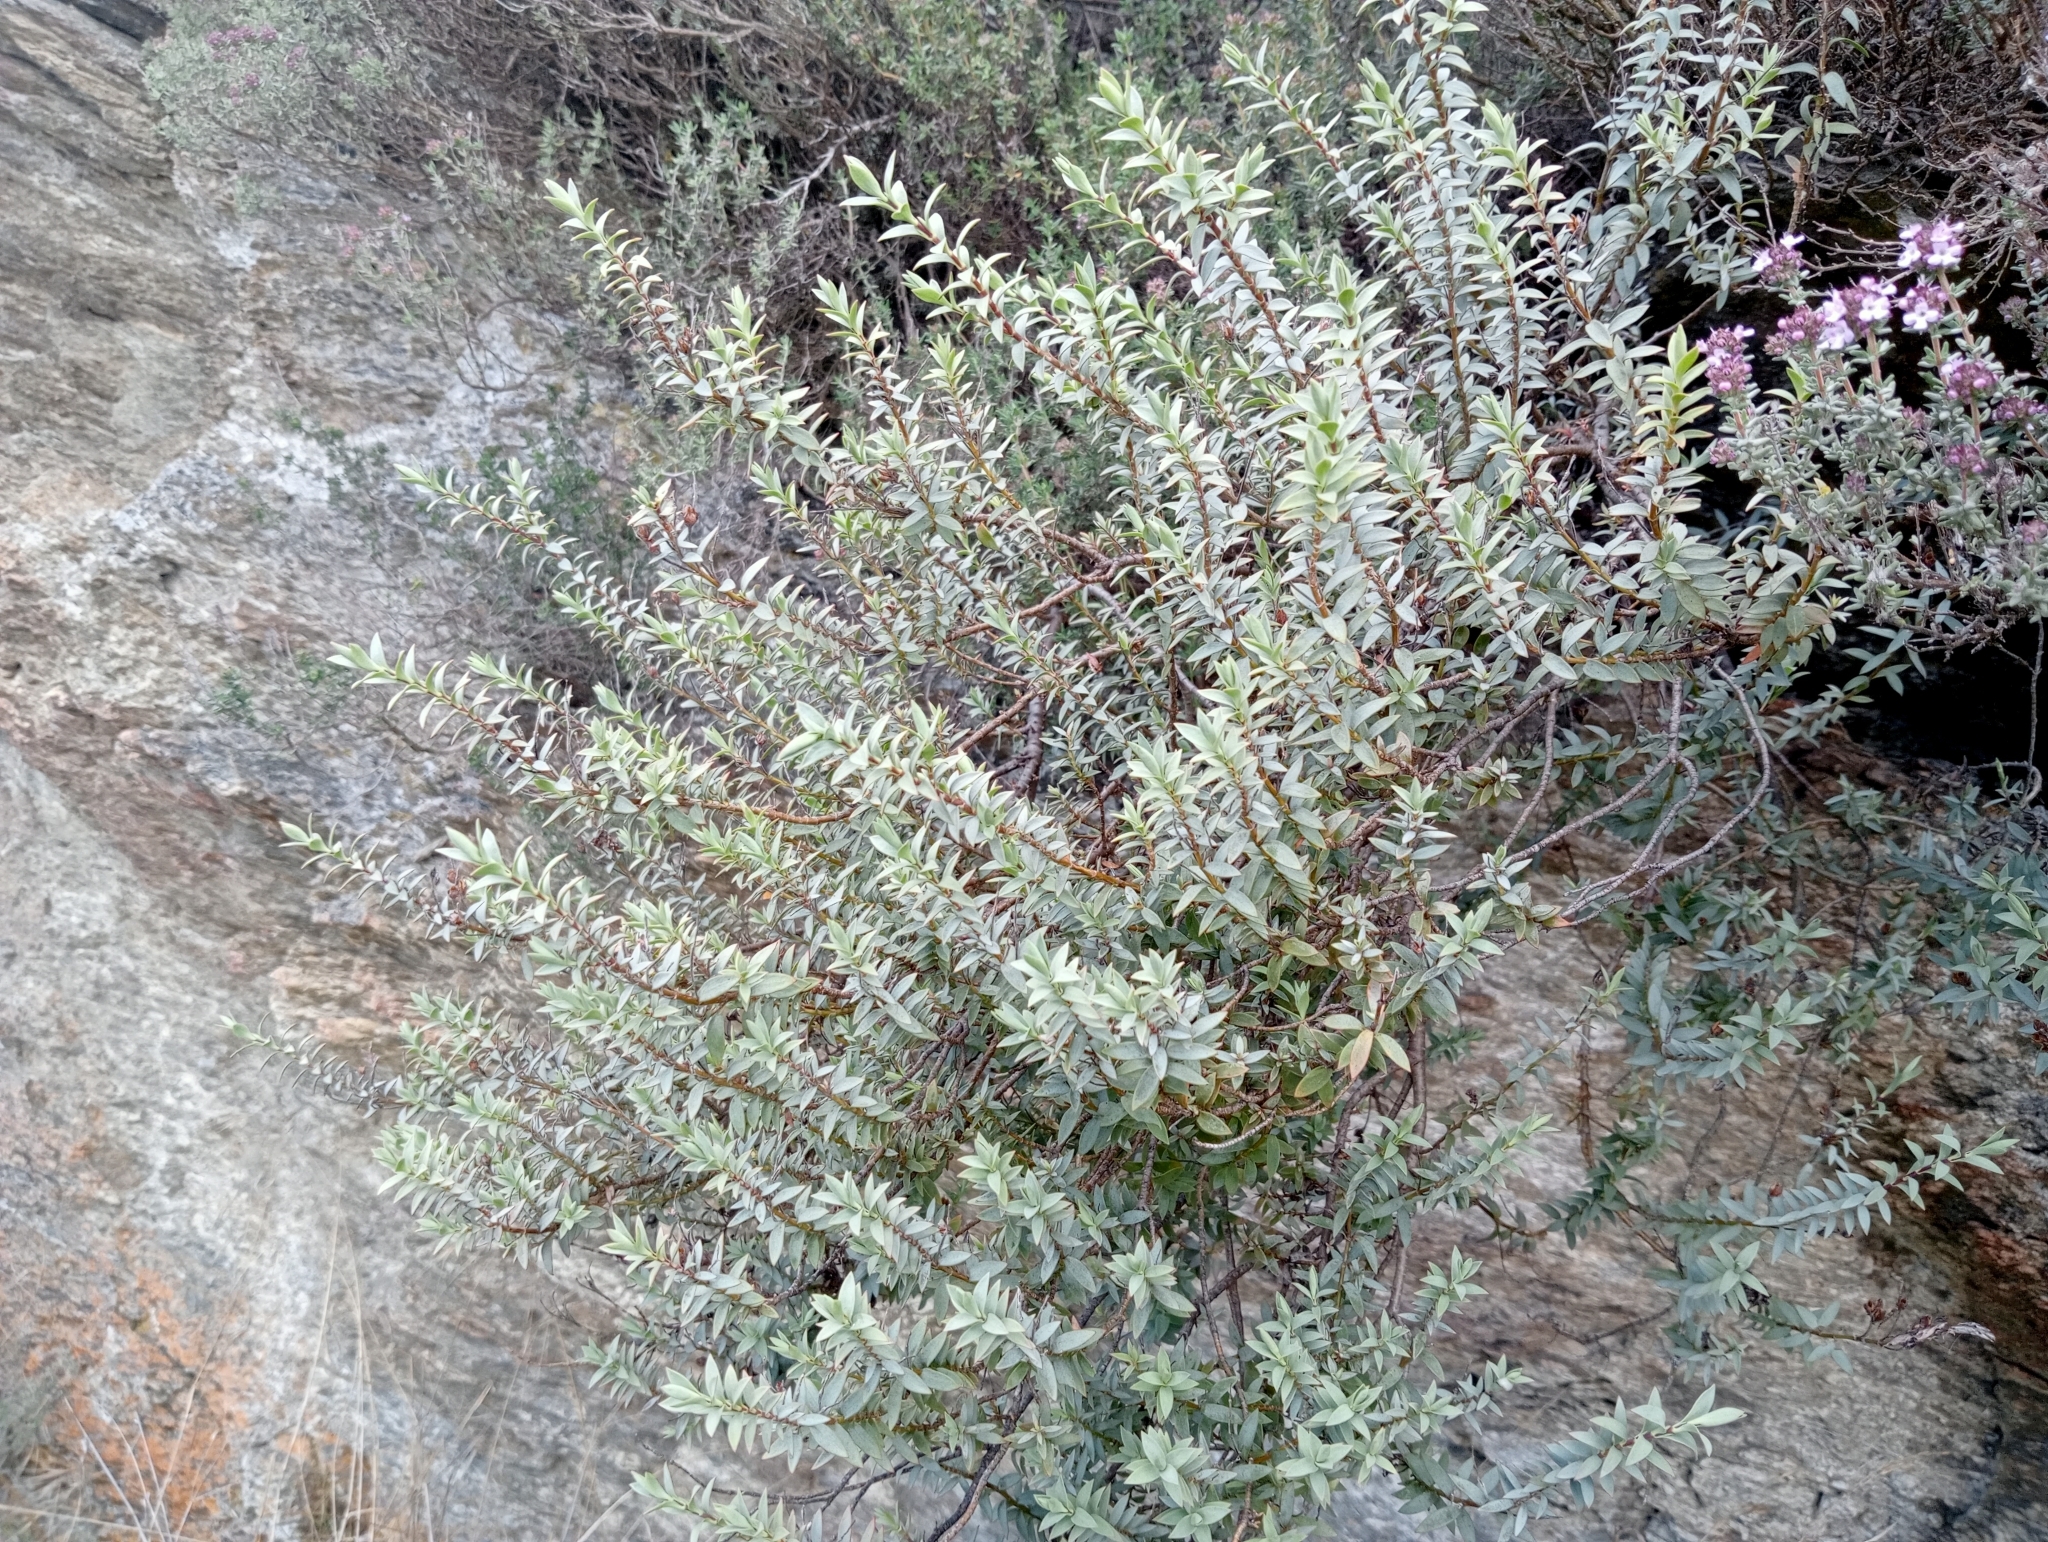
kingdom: Plantae
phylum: Tracheophyta
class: Magnoliopsida
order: Lamiales
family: Plantaginaceae
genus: Veronica
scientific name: Veronica pimeleoides
